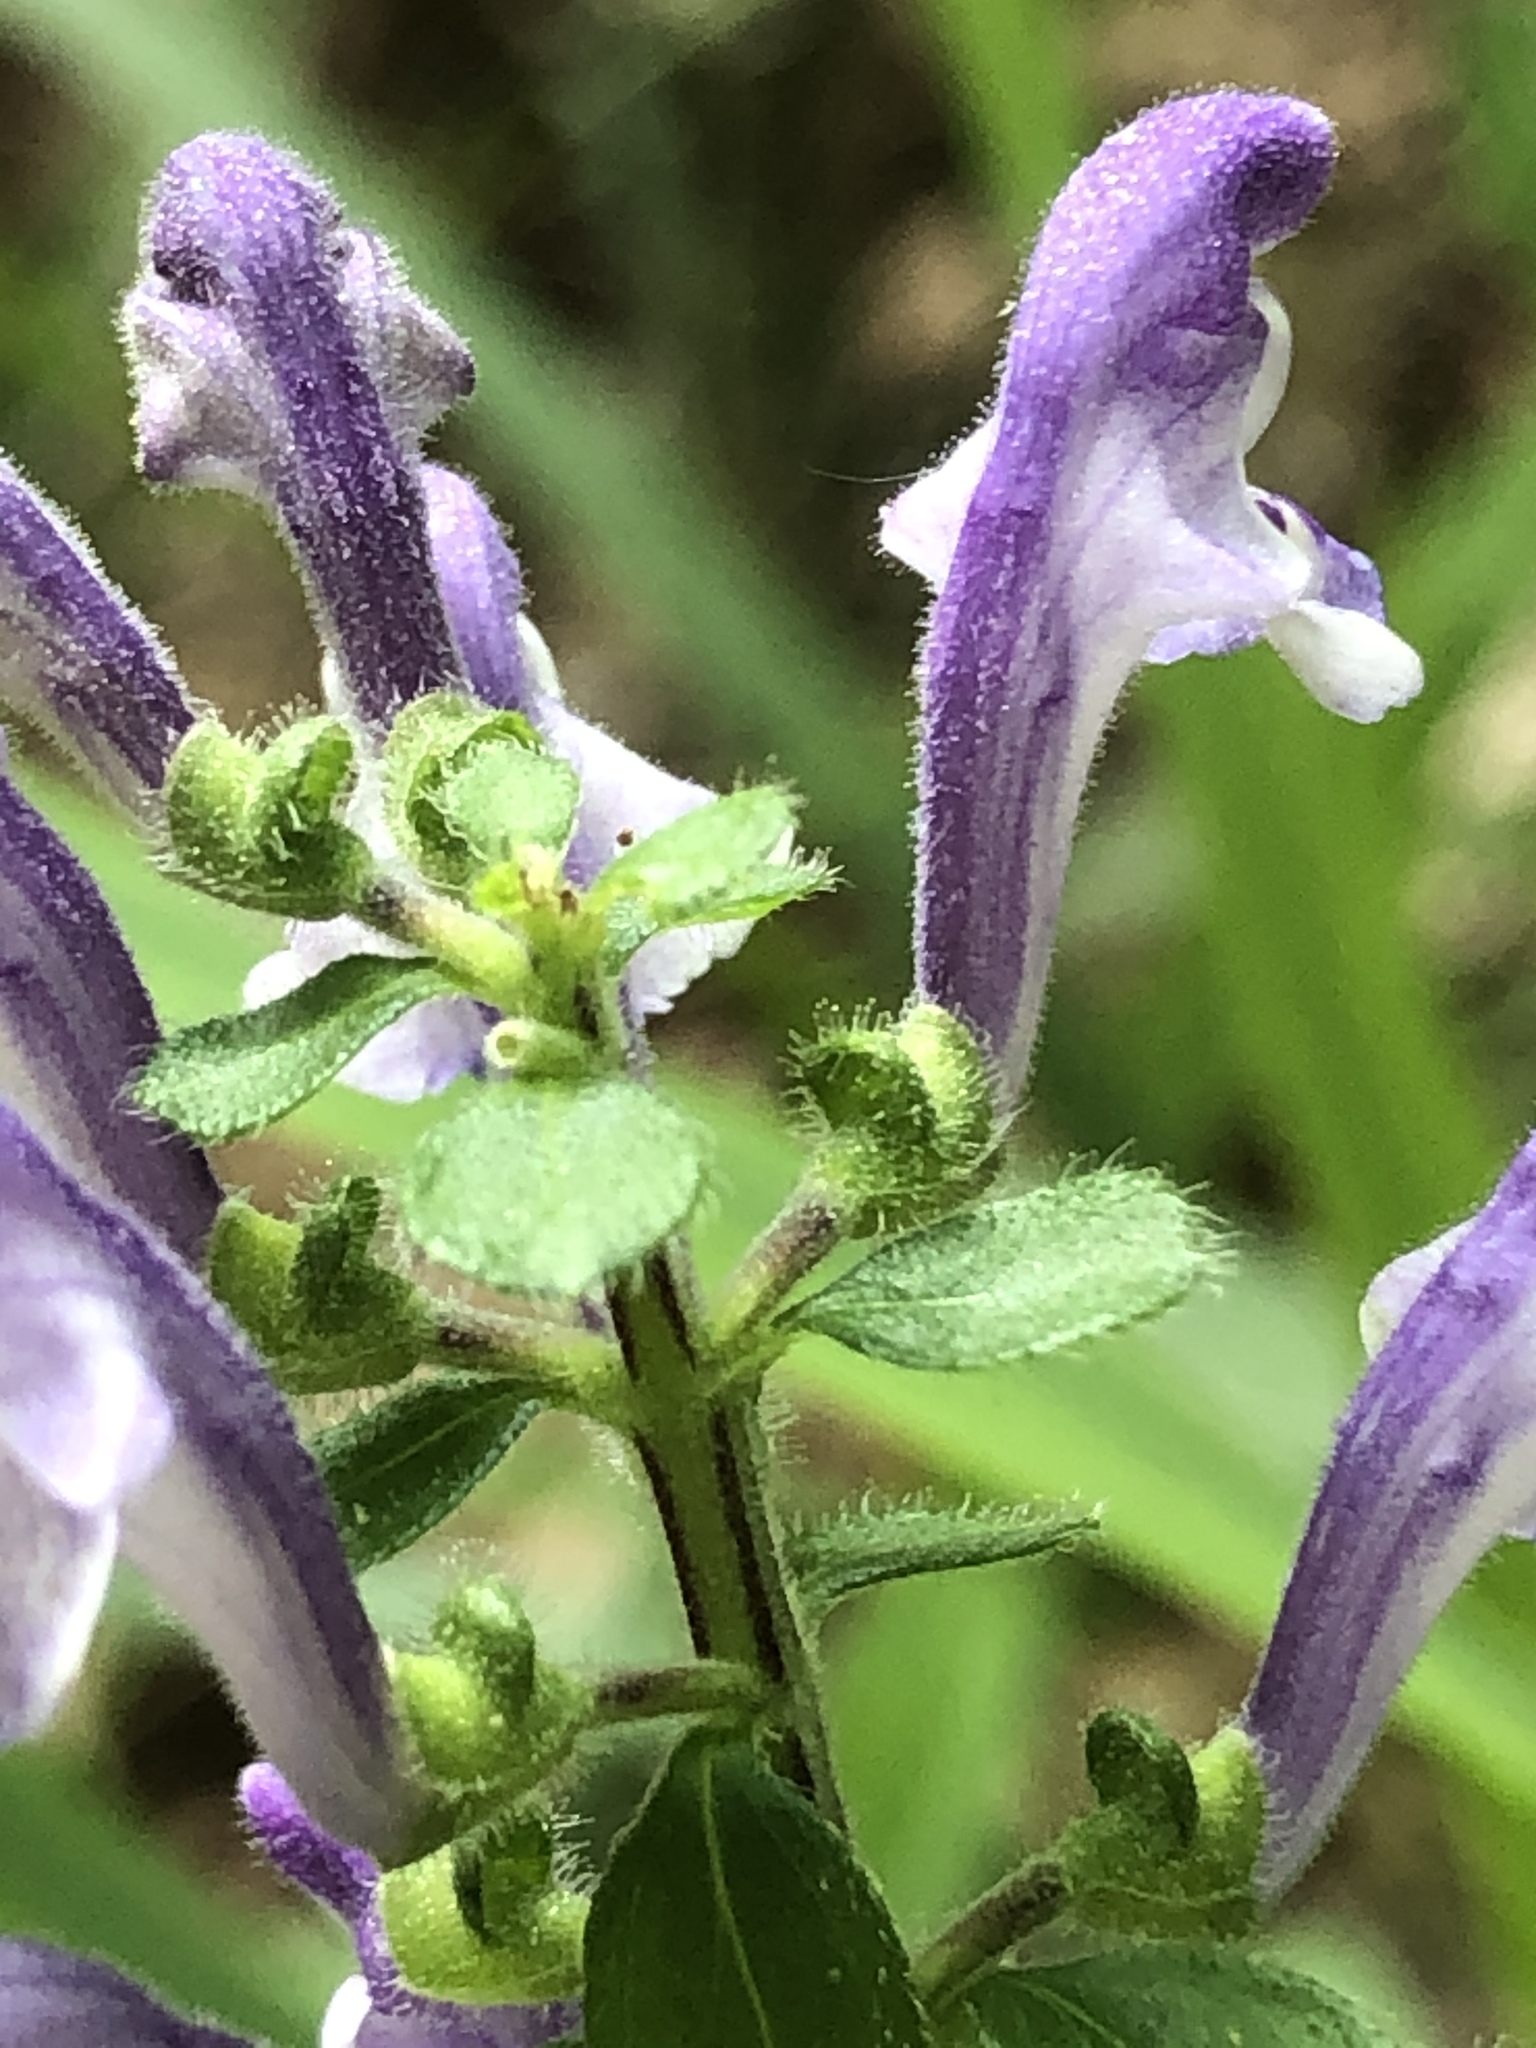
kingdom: Plantae
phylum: Tracheophyta
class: Magnoliopsida
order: Lamiales
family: Lamiaceae
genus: Scutellaria
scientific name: Scutellaria elliptica
